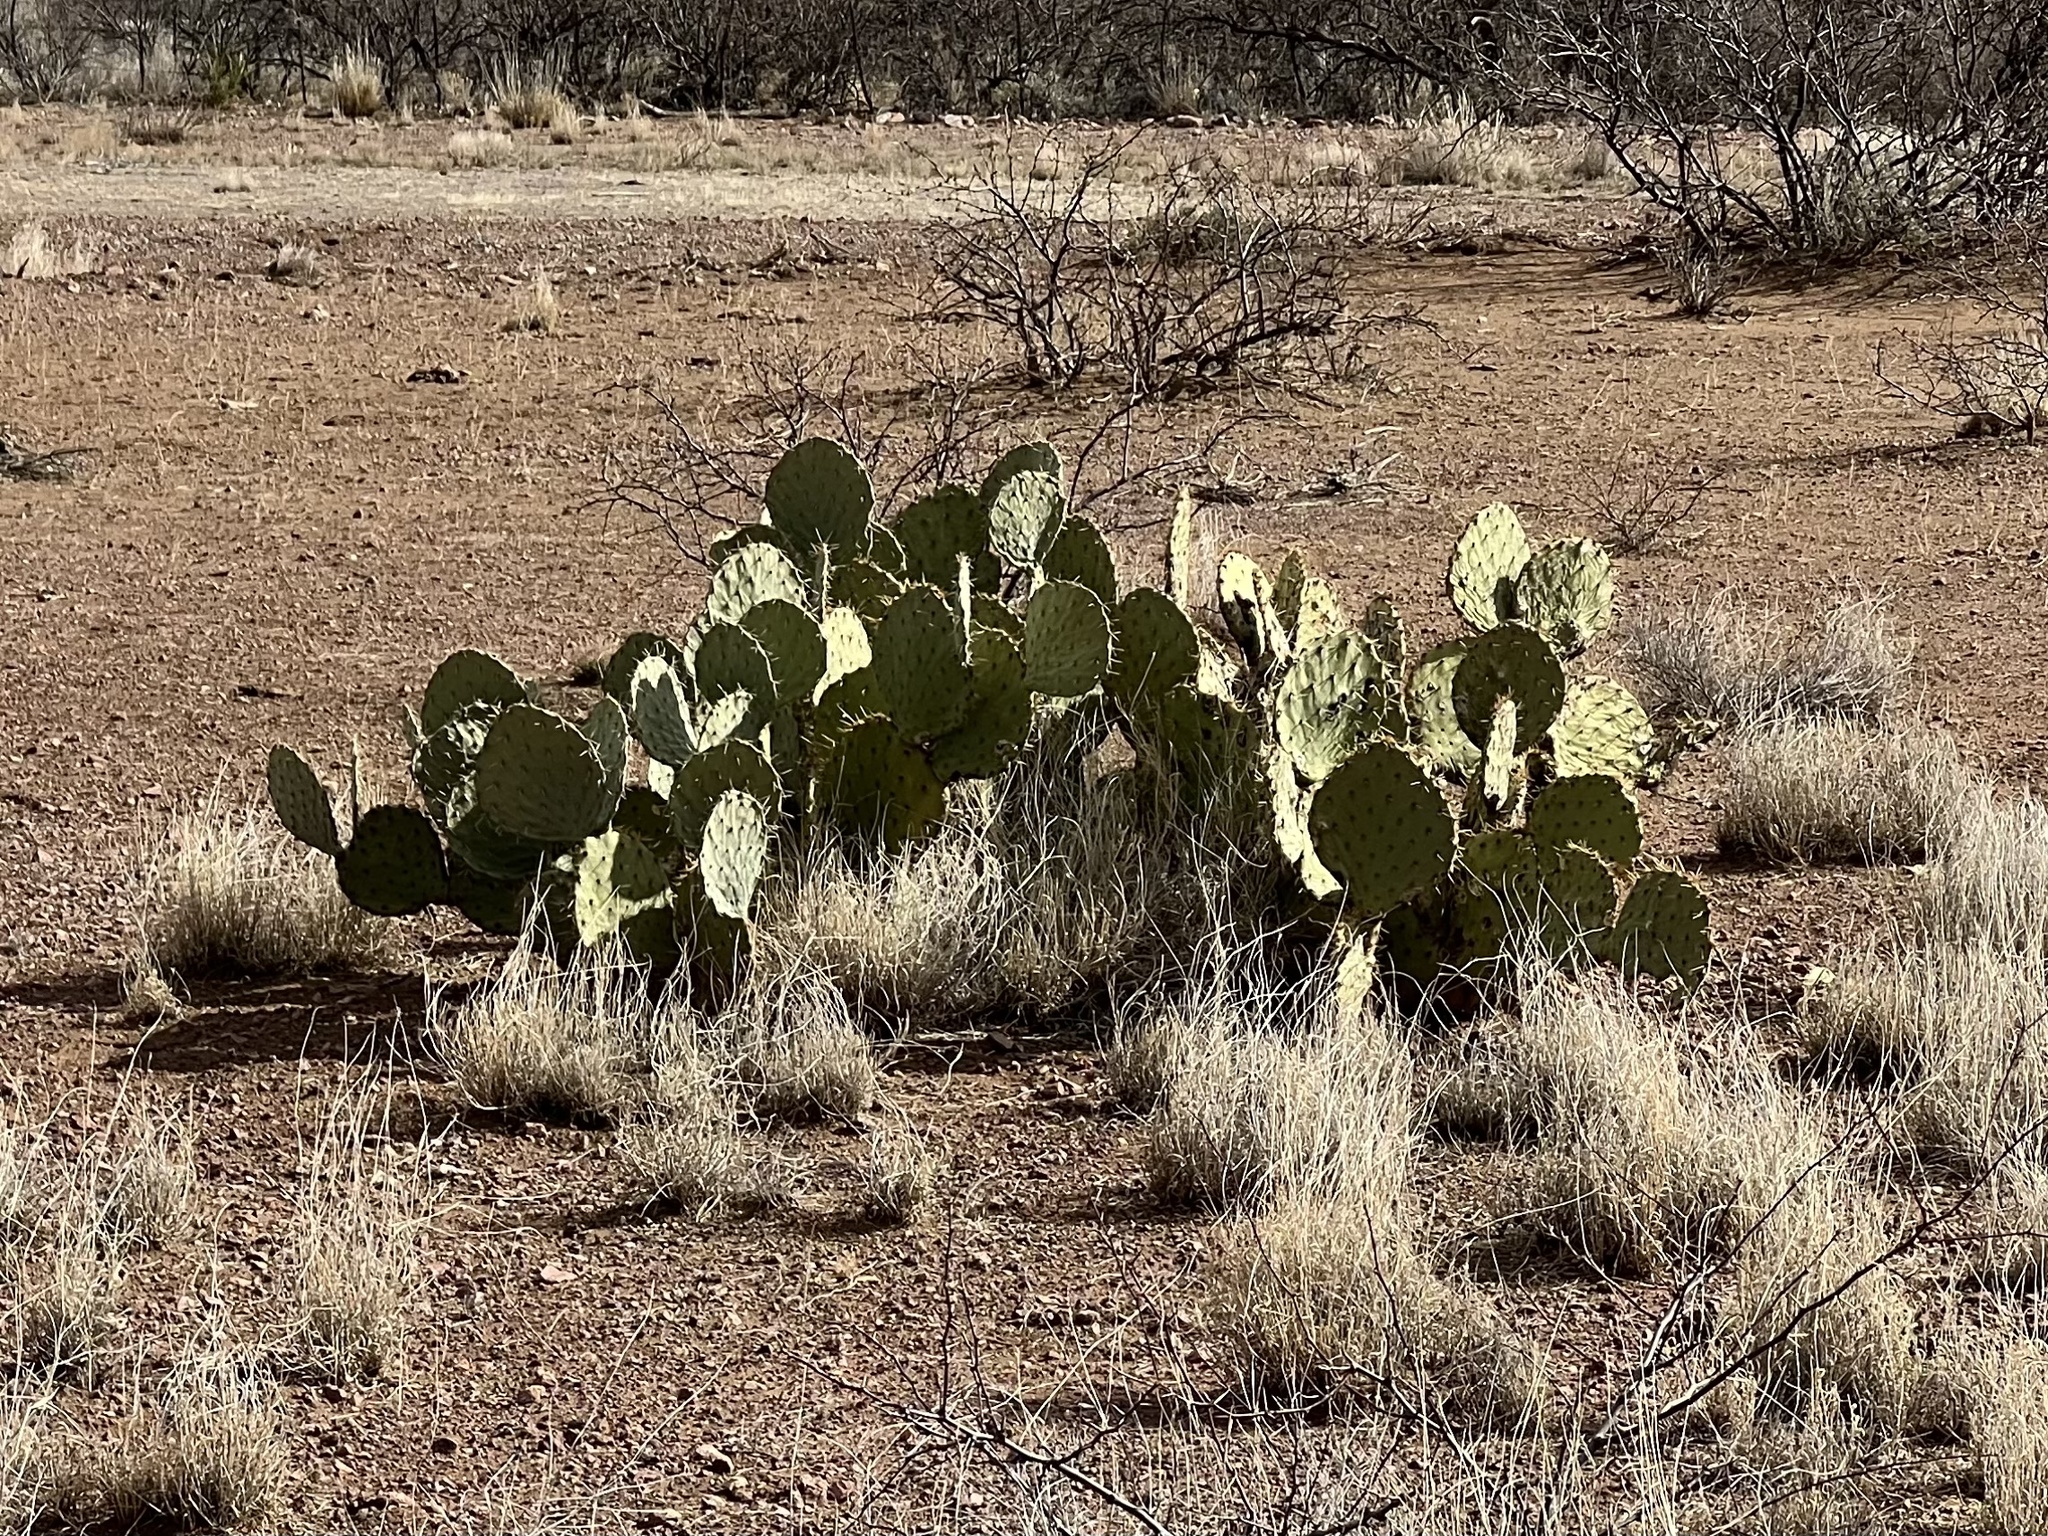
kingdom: Plantae
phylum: Tracheophyta
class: Magnoliopsida
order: Caryophyllales
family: Cactaceae
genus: Opuntia
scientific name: Opuntia engelmannii
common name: Cactus-apple
